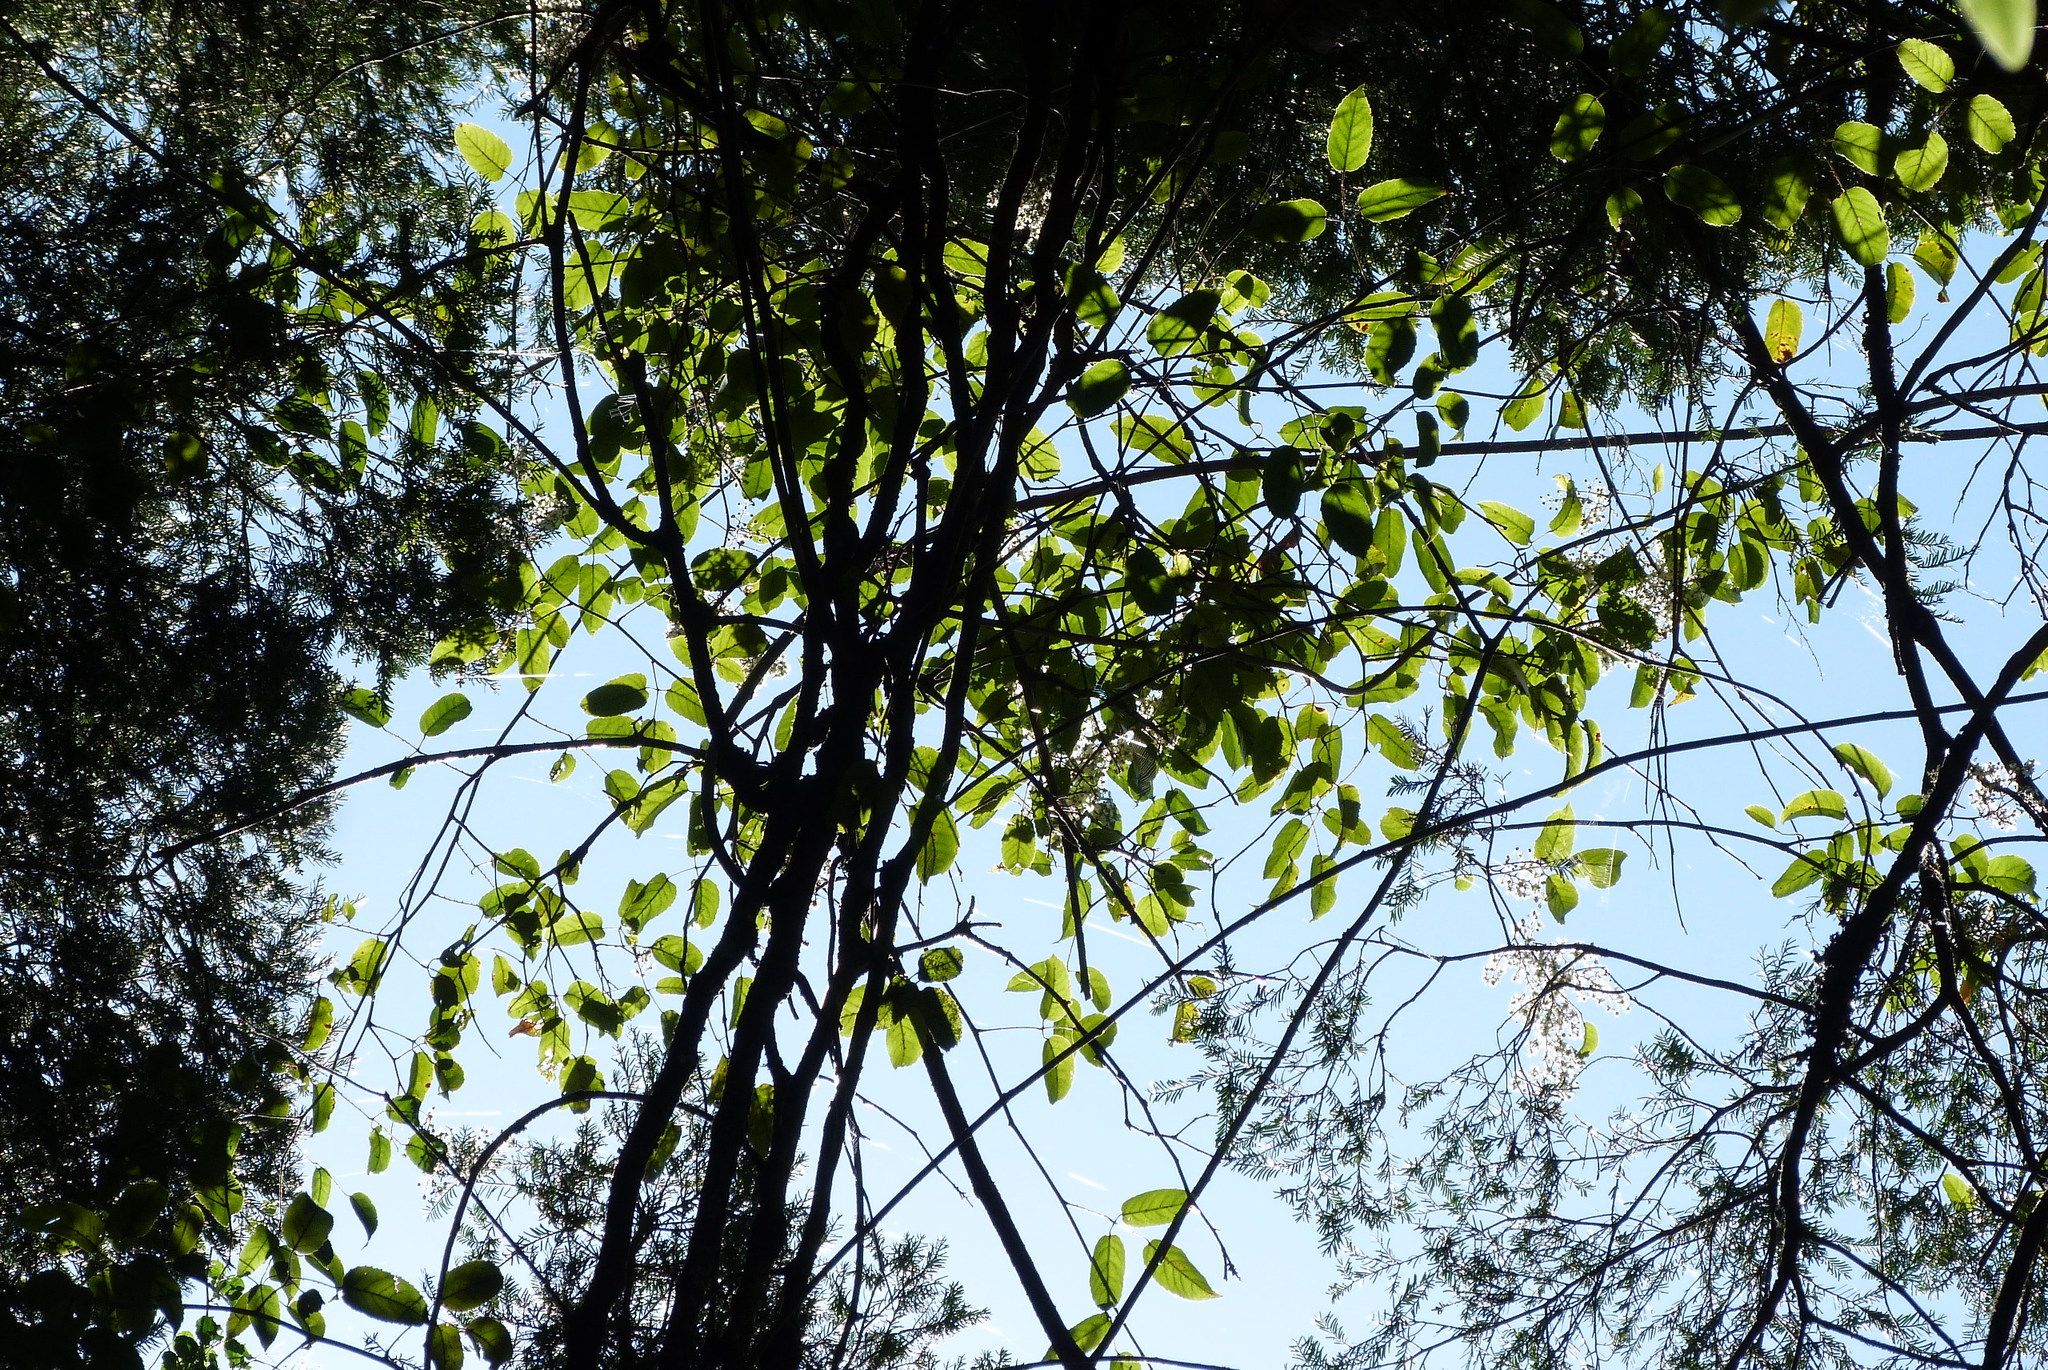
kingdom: Plantae
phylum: Tracheophyta
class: Magnoliopsida
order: Rosales
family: Rosaceae
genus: Rubus
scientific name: Rubus cissoides
